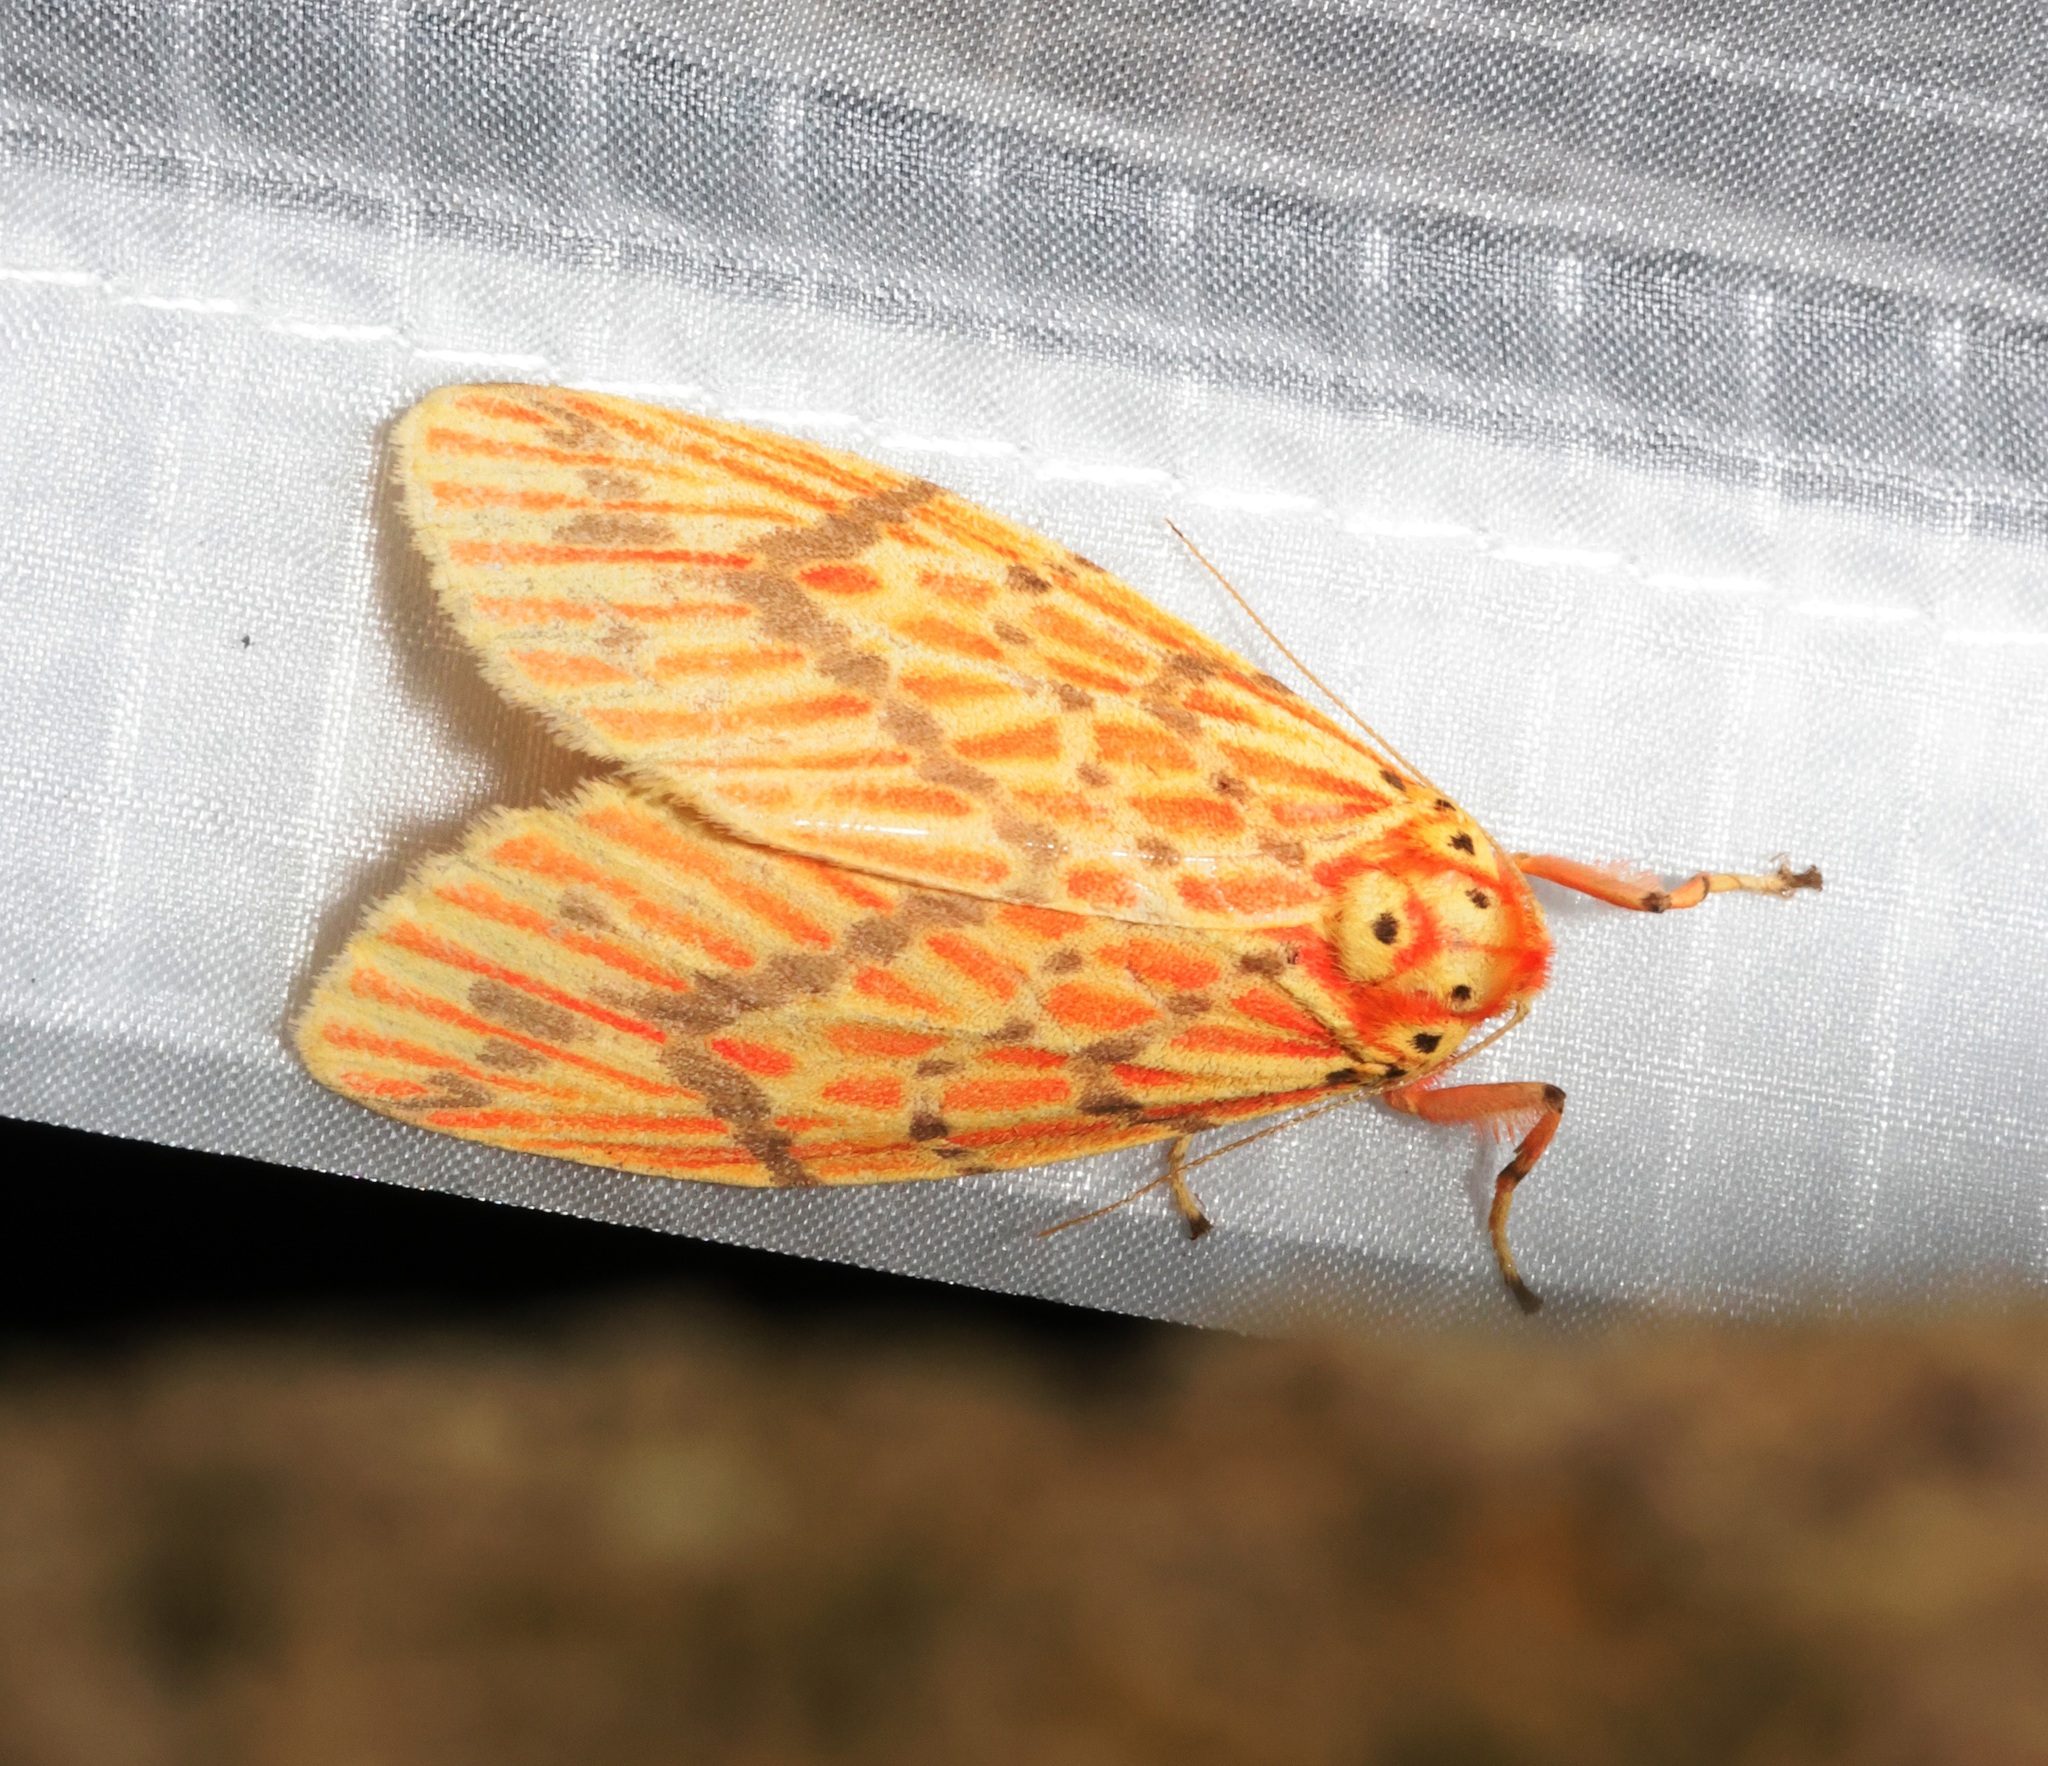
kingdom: Animalia
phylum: Arthropoda
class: Insecta
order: Lepidoptera
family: Erebidae
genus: Barsine
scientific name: Barsine striata
